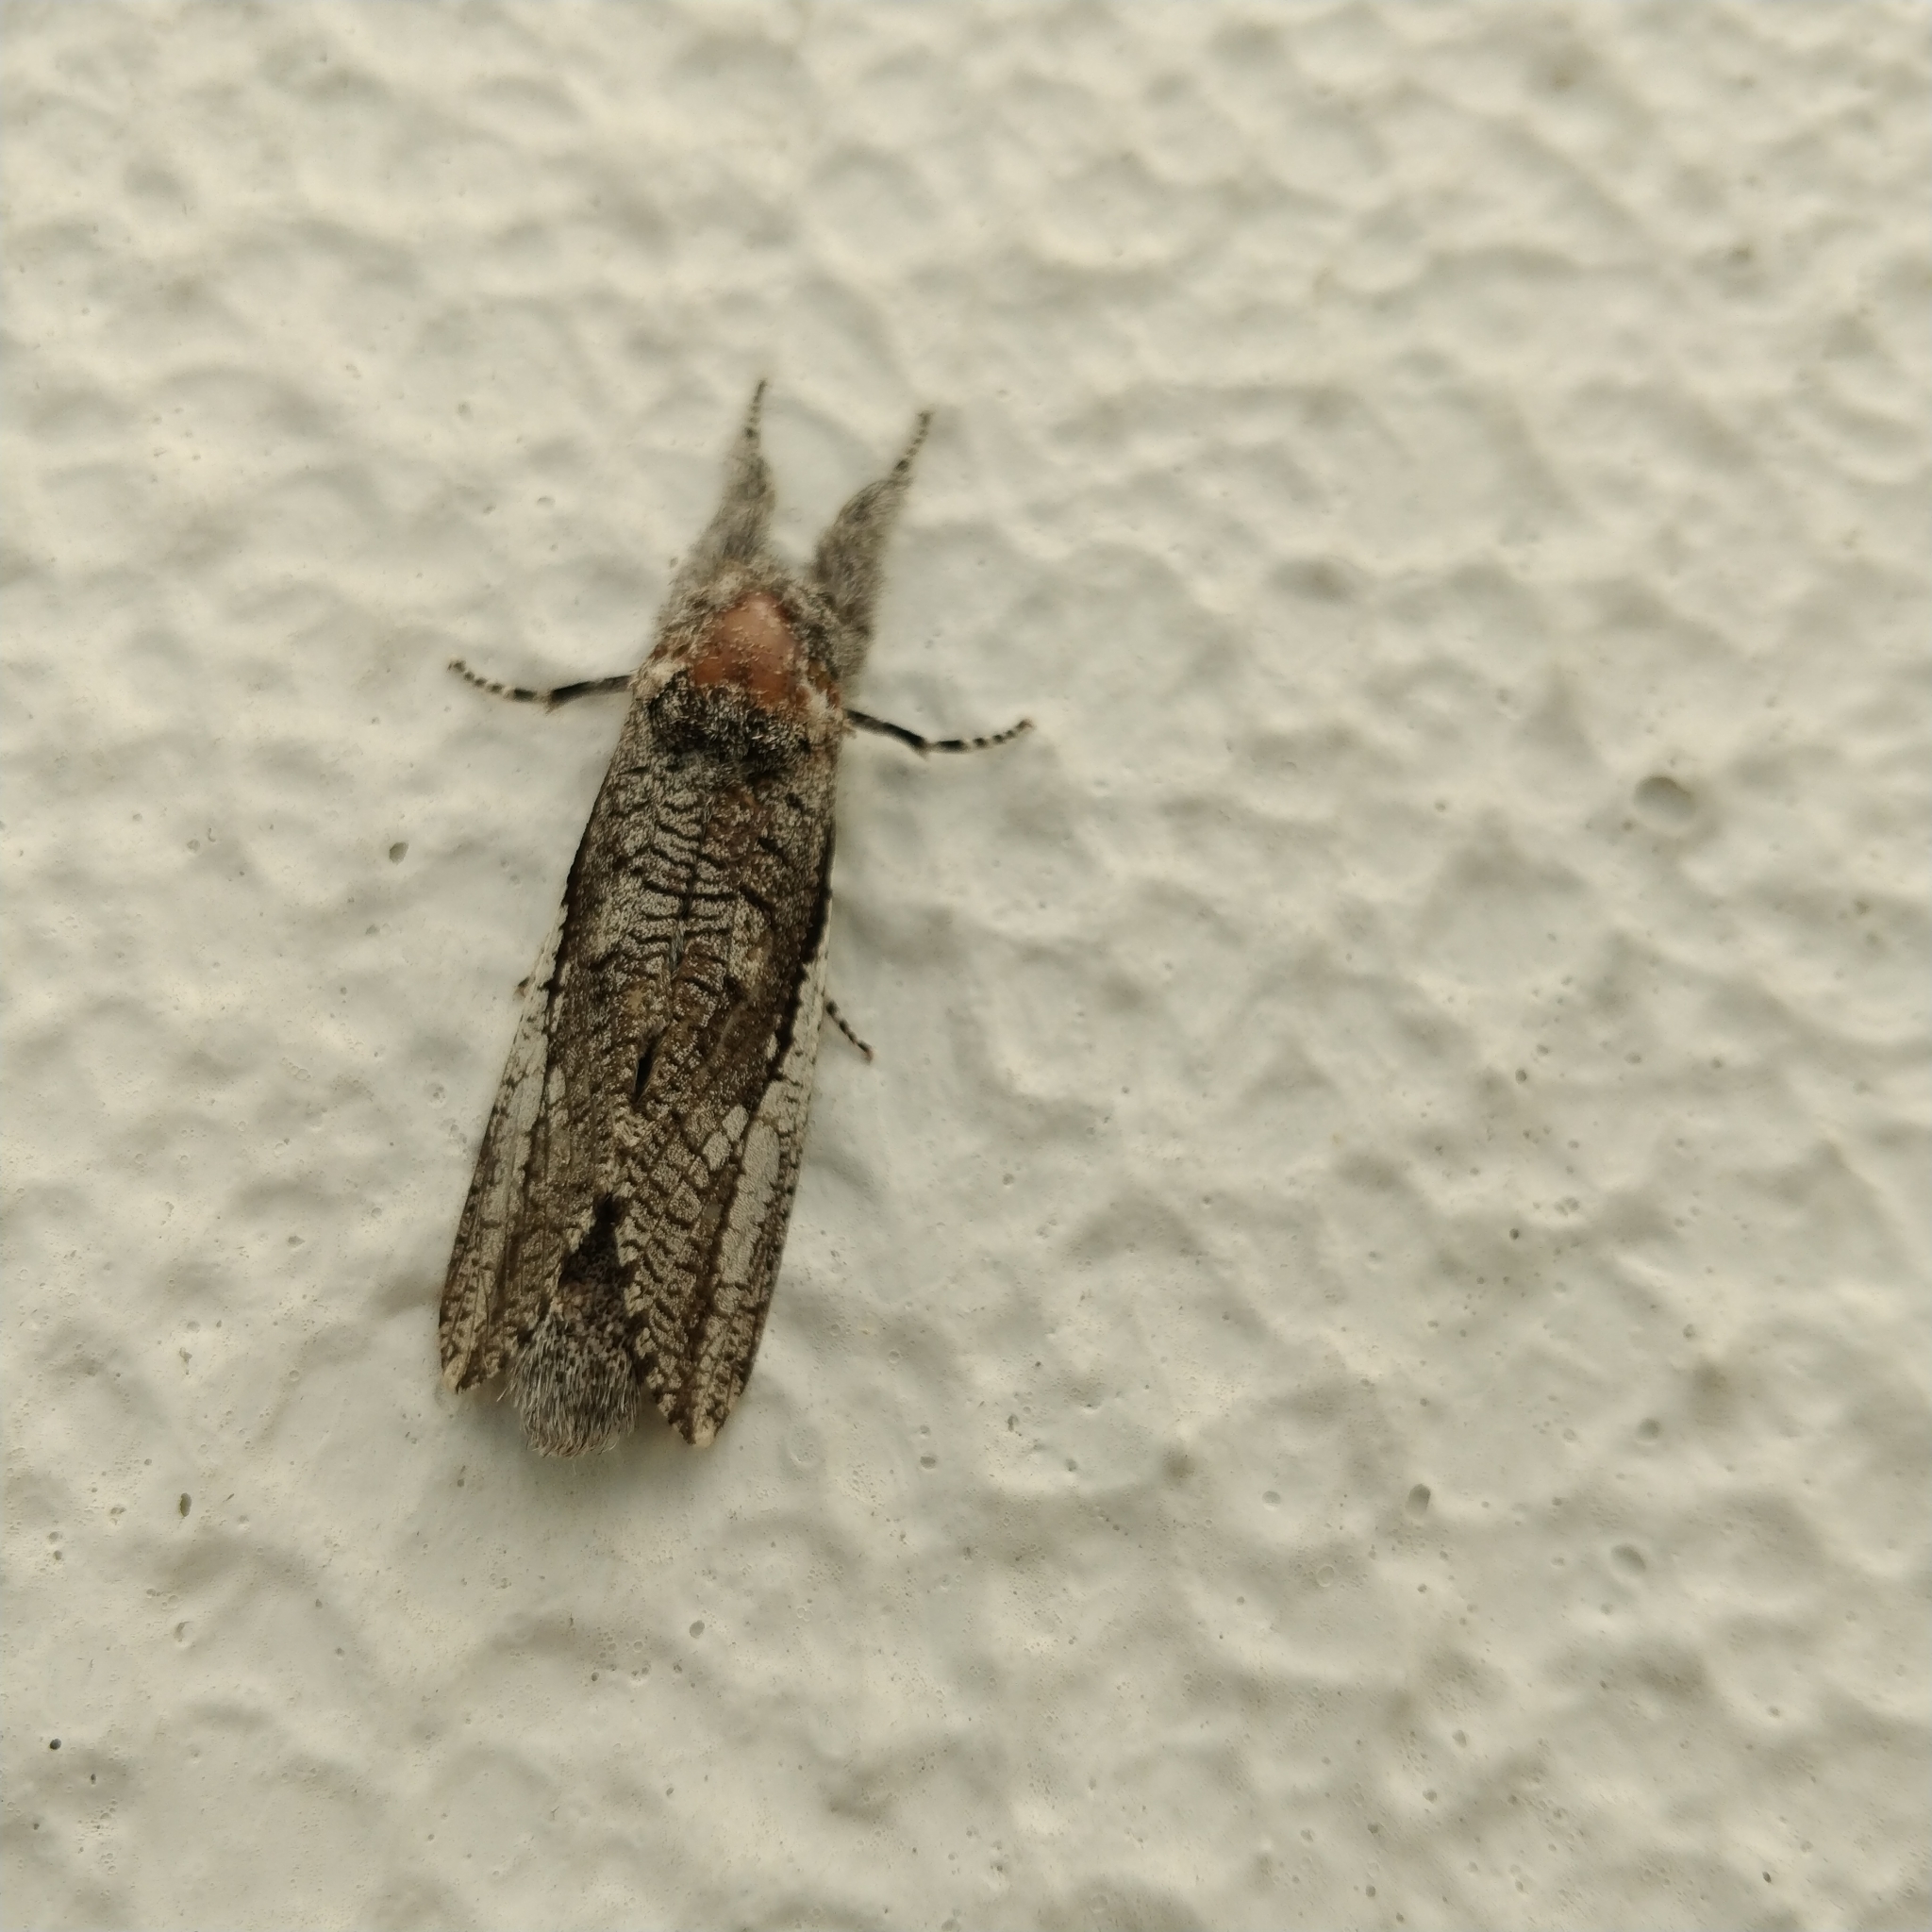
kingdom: Animalia
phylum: Arthropoda
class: Insecta
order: Lepidoptera
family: Cossidae
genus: Endoxyla
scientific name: Endoxyla secta
